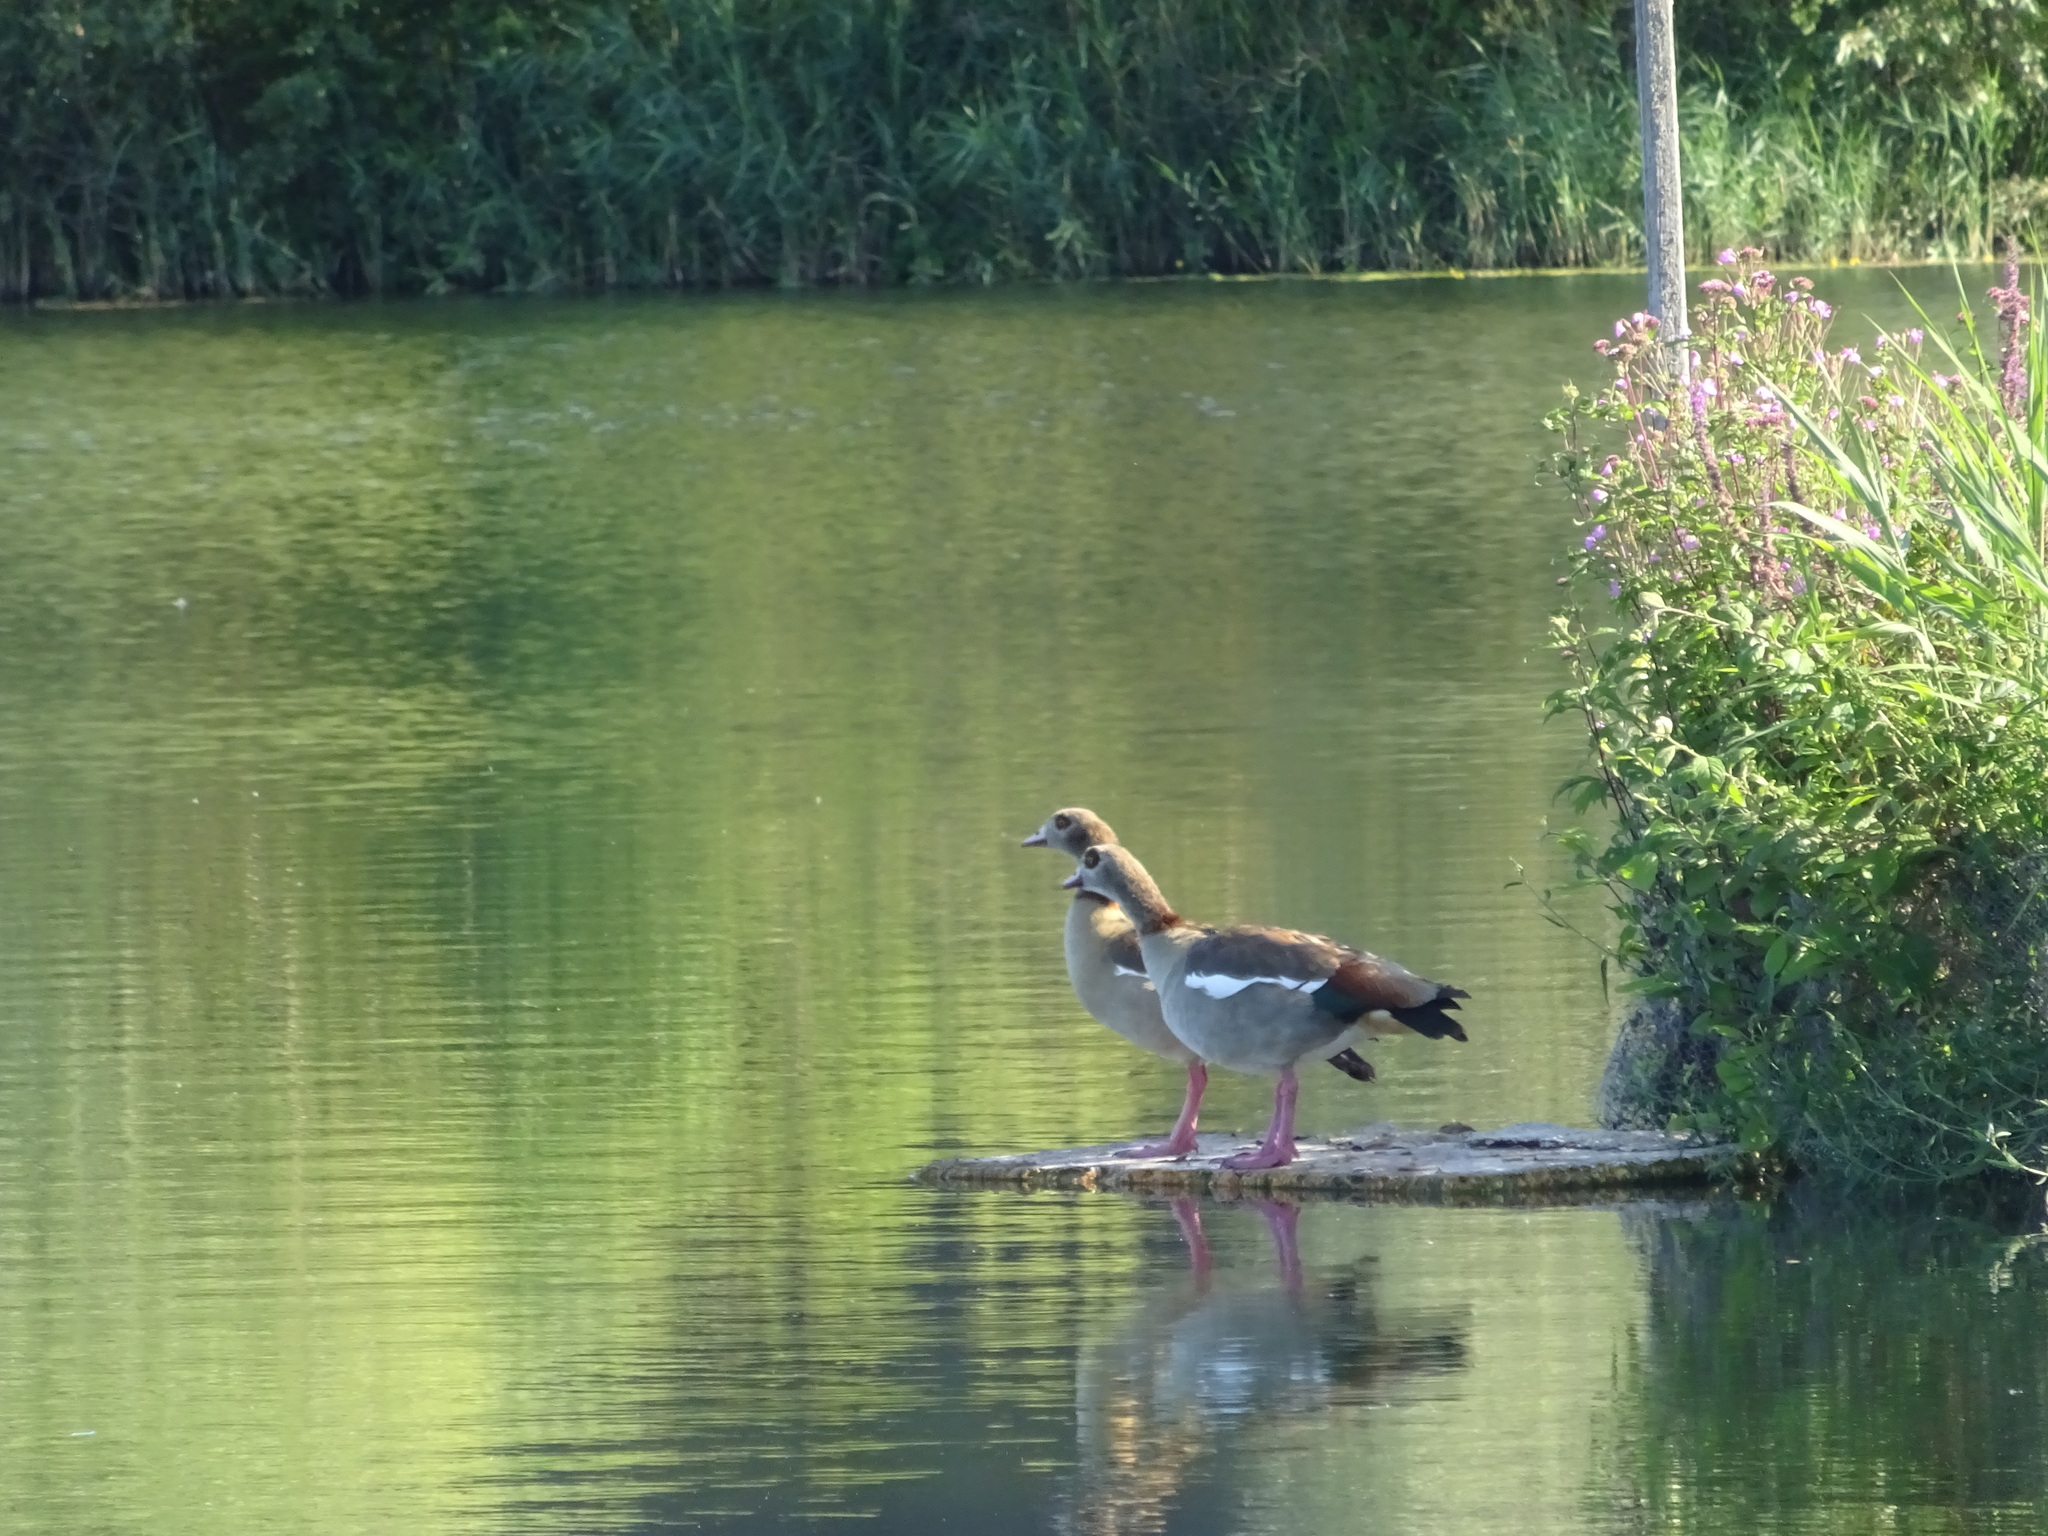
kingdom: Animalia
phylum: Chordata
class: Aves
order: Anseriformes
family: Anatidae
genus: Alopochen
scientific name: Alopochen aegyptiaca
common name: Egyptian goose
